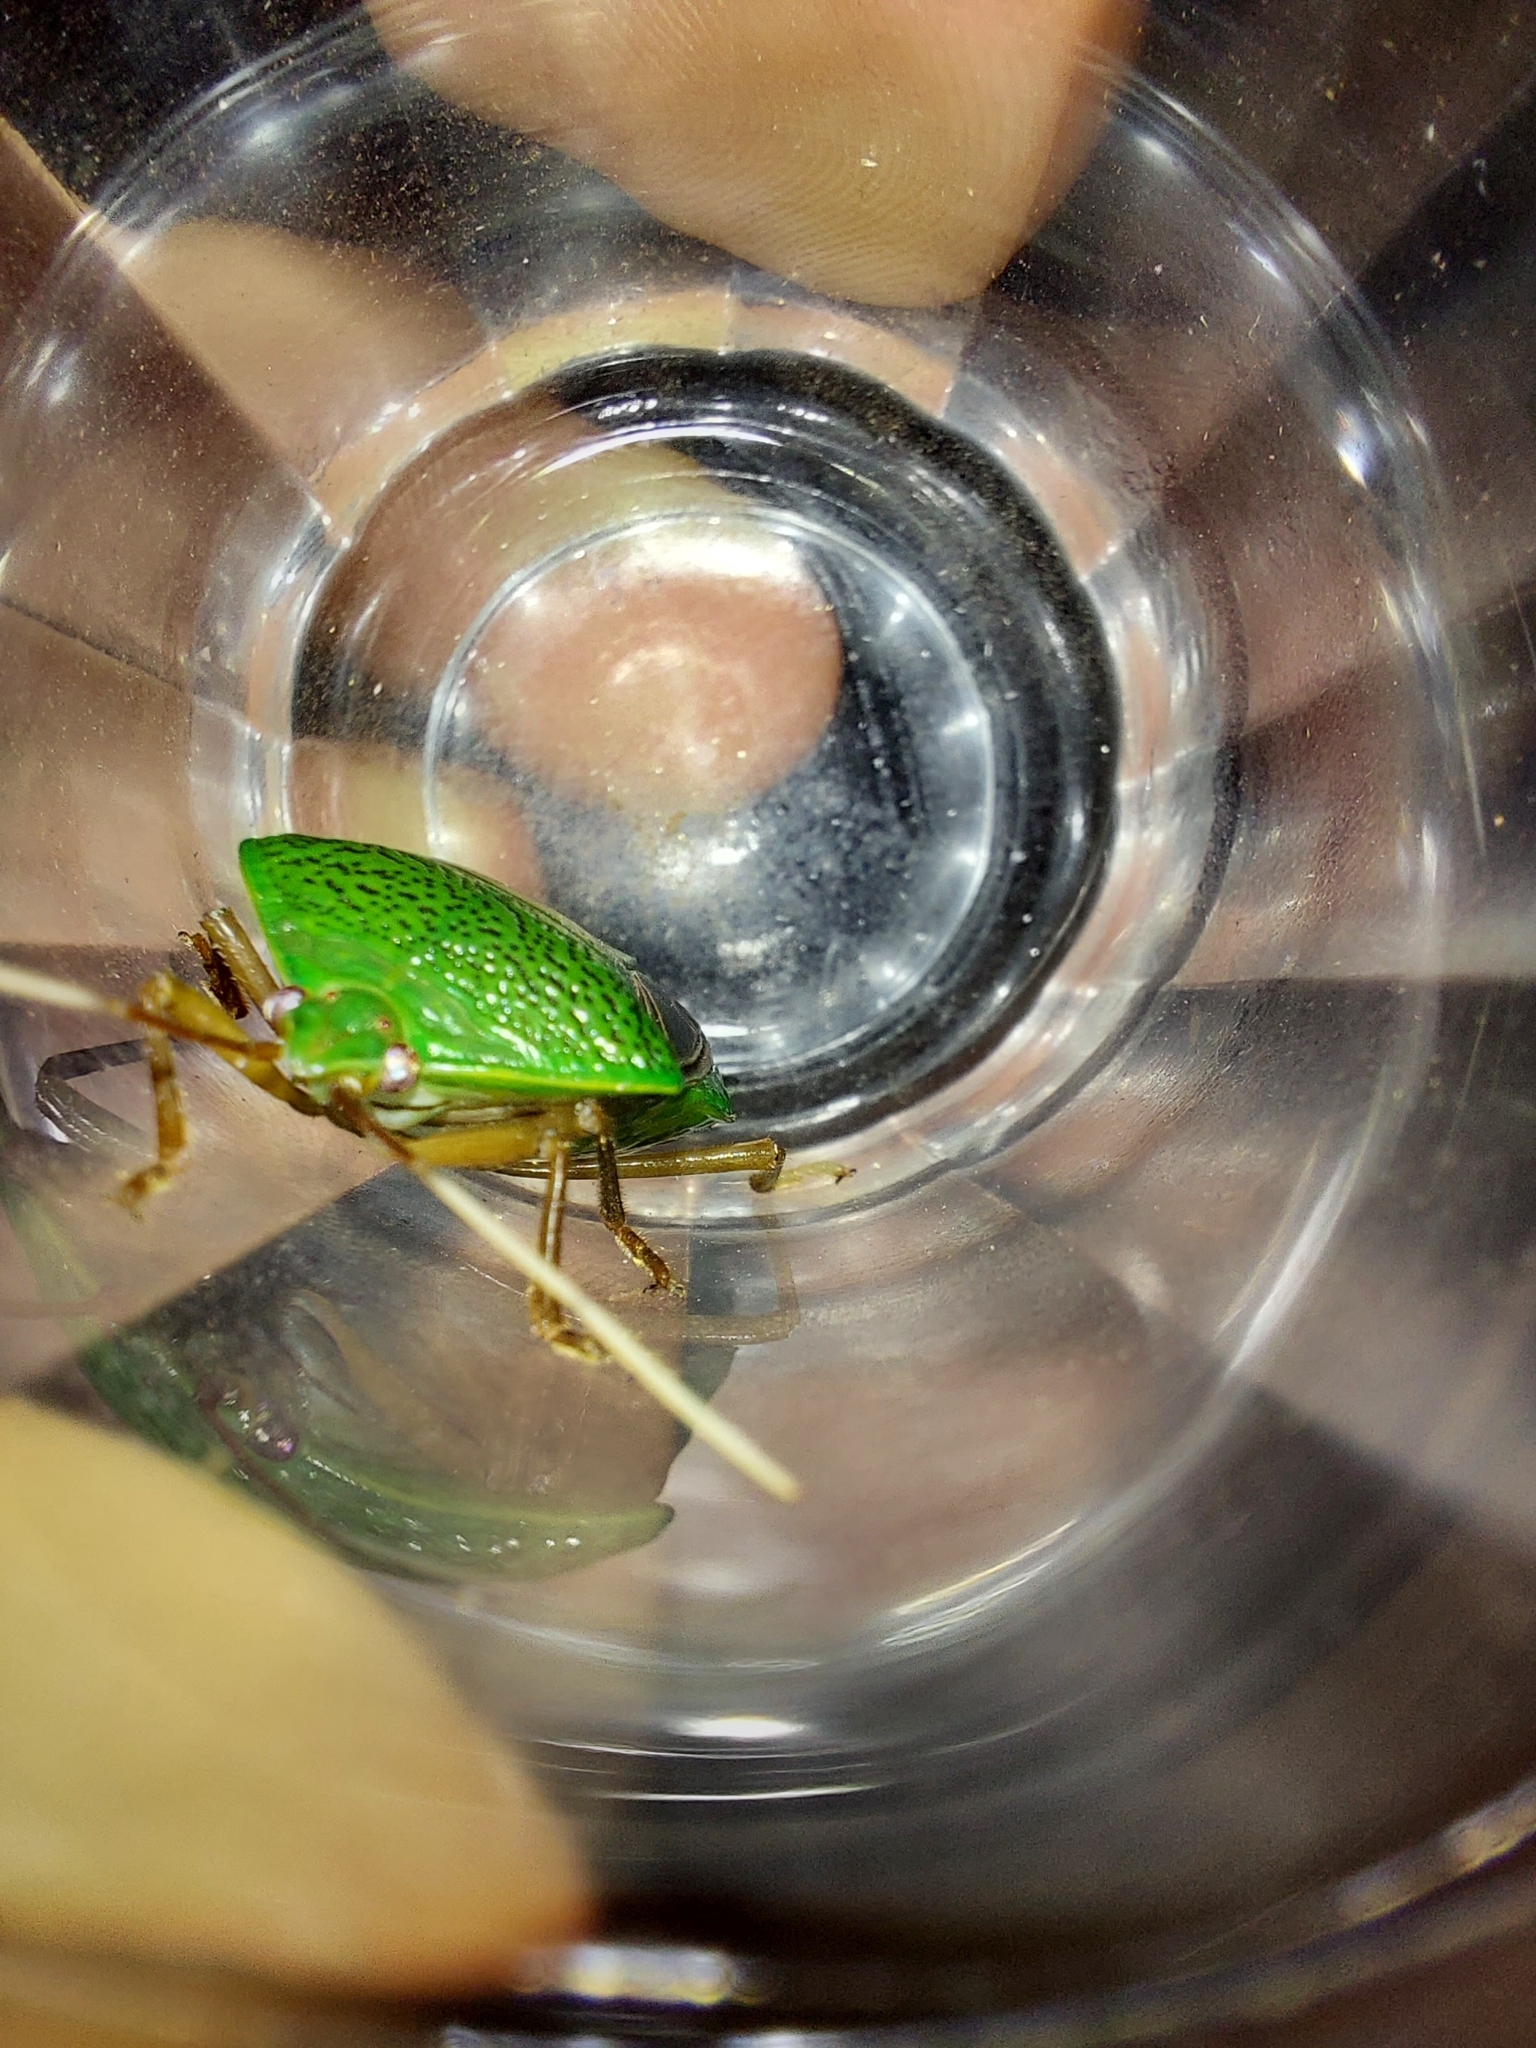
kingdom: Animalia
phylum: Arthropoda
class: Insecta
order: Hemiptera
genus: Pygoda
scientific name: Pygoda polita
